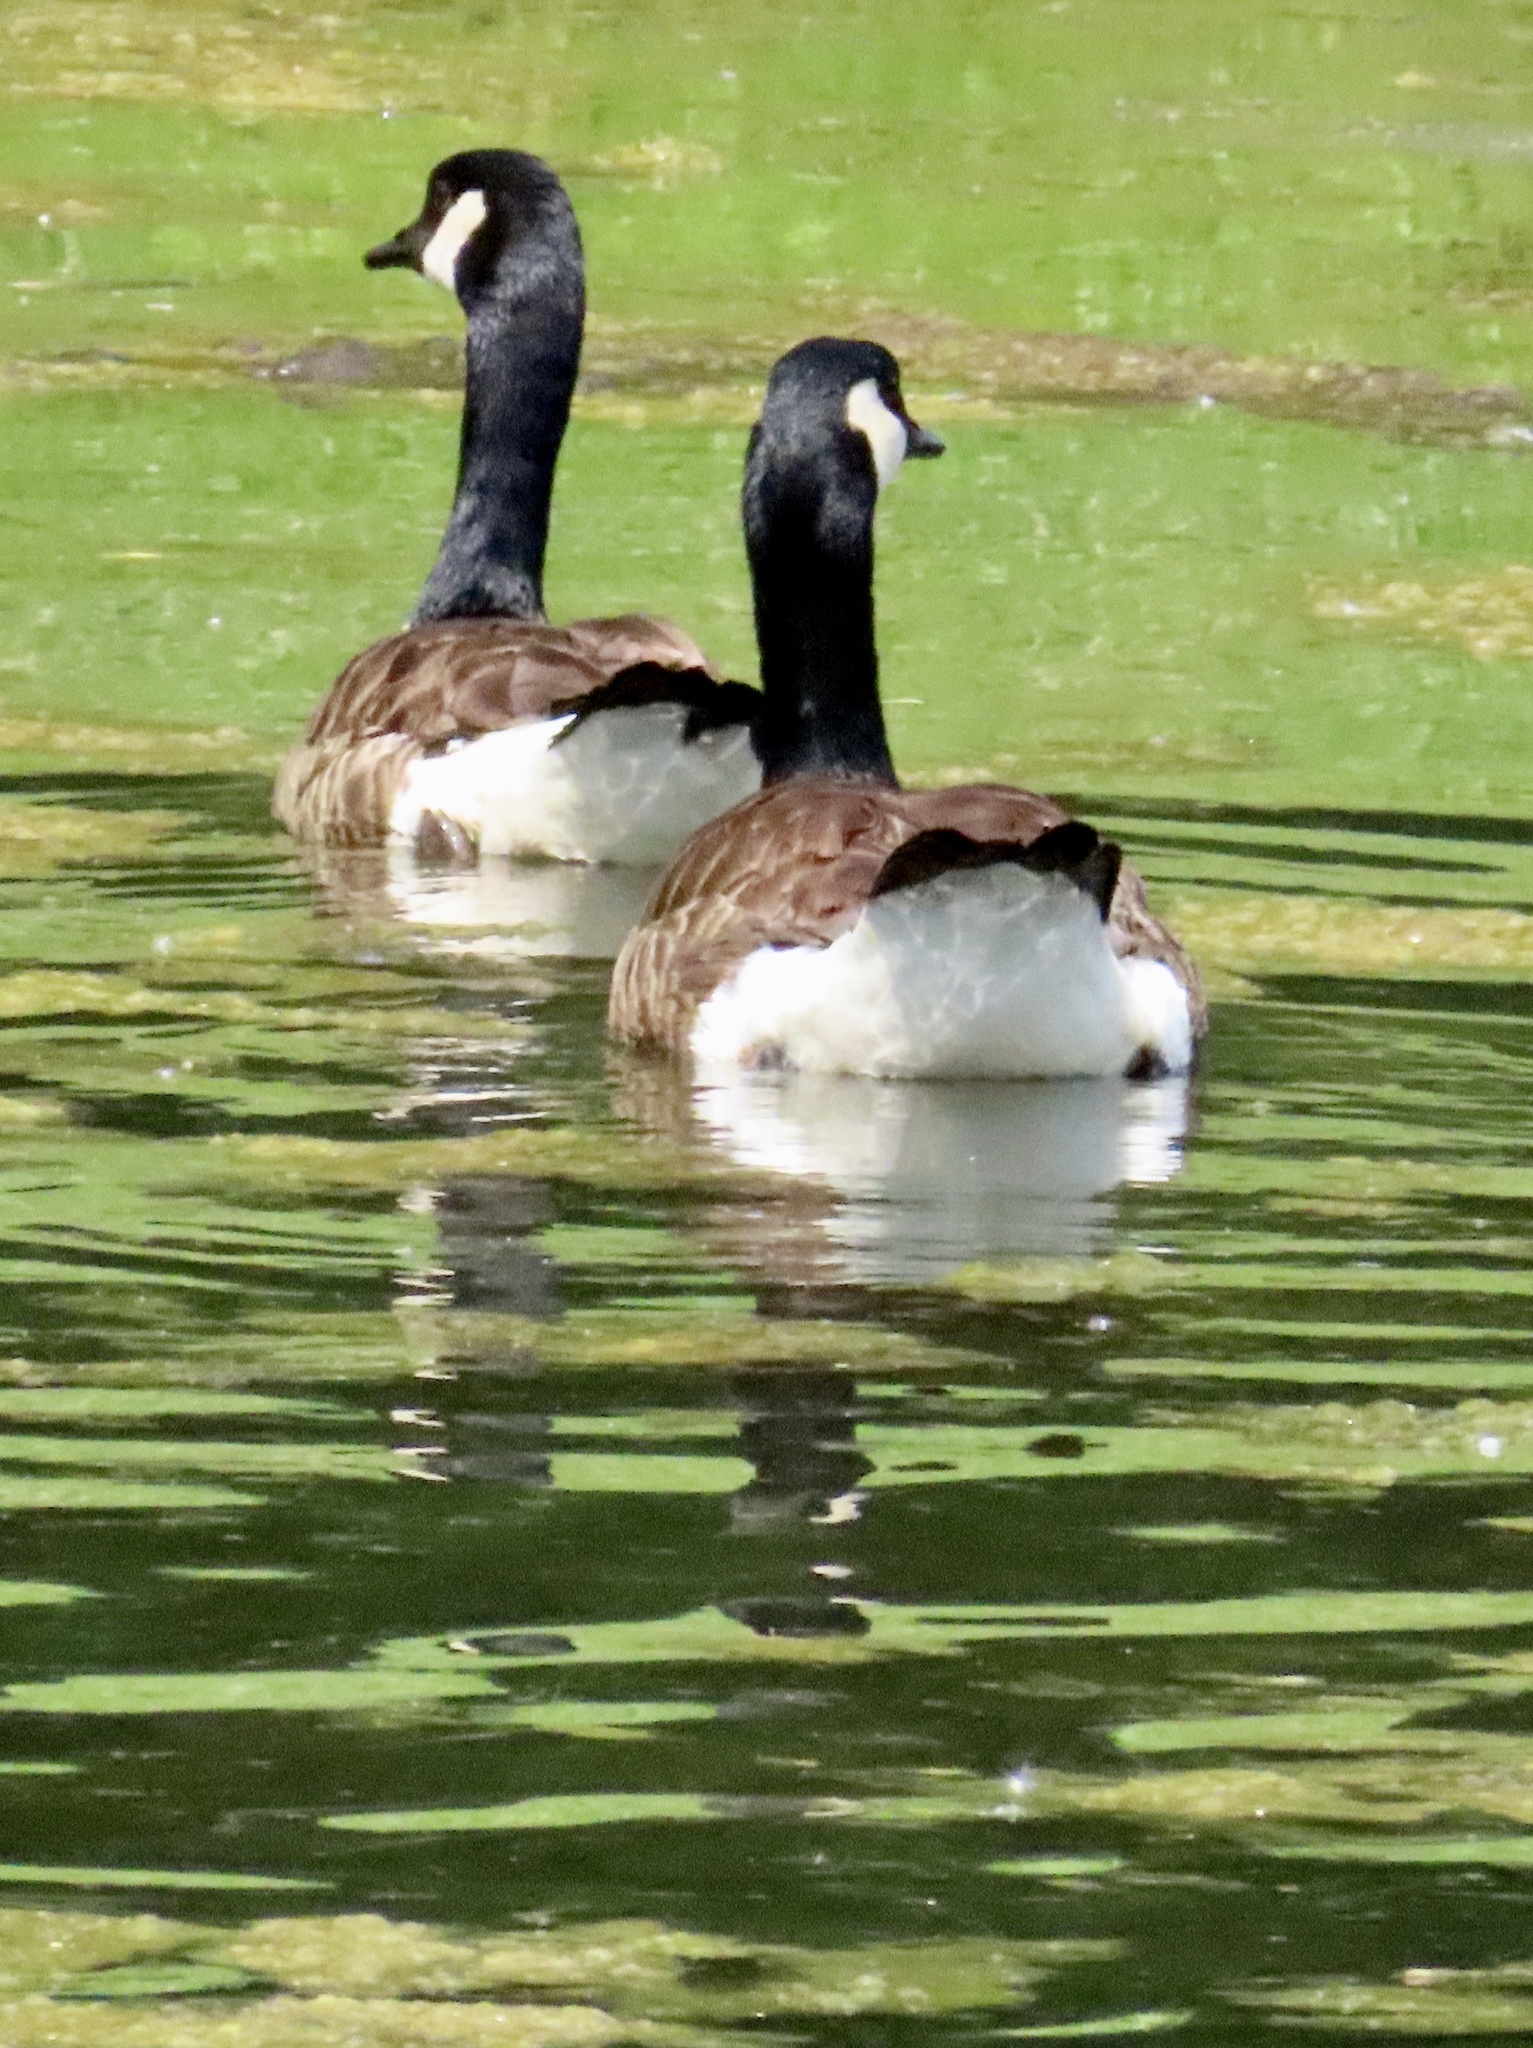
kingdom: Animalia
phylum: Chordata
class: Aves
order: Anseriformes
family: Anatidae
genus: Branta
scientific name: Branta canadensis
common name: Canada goose
